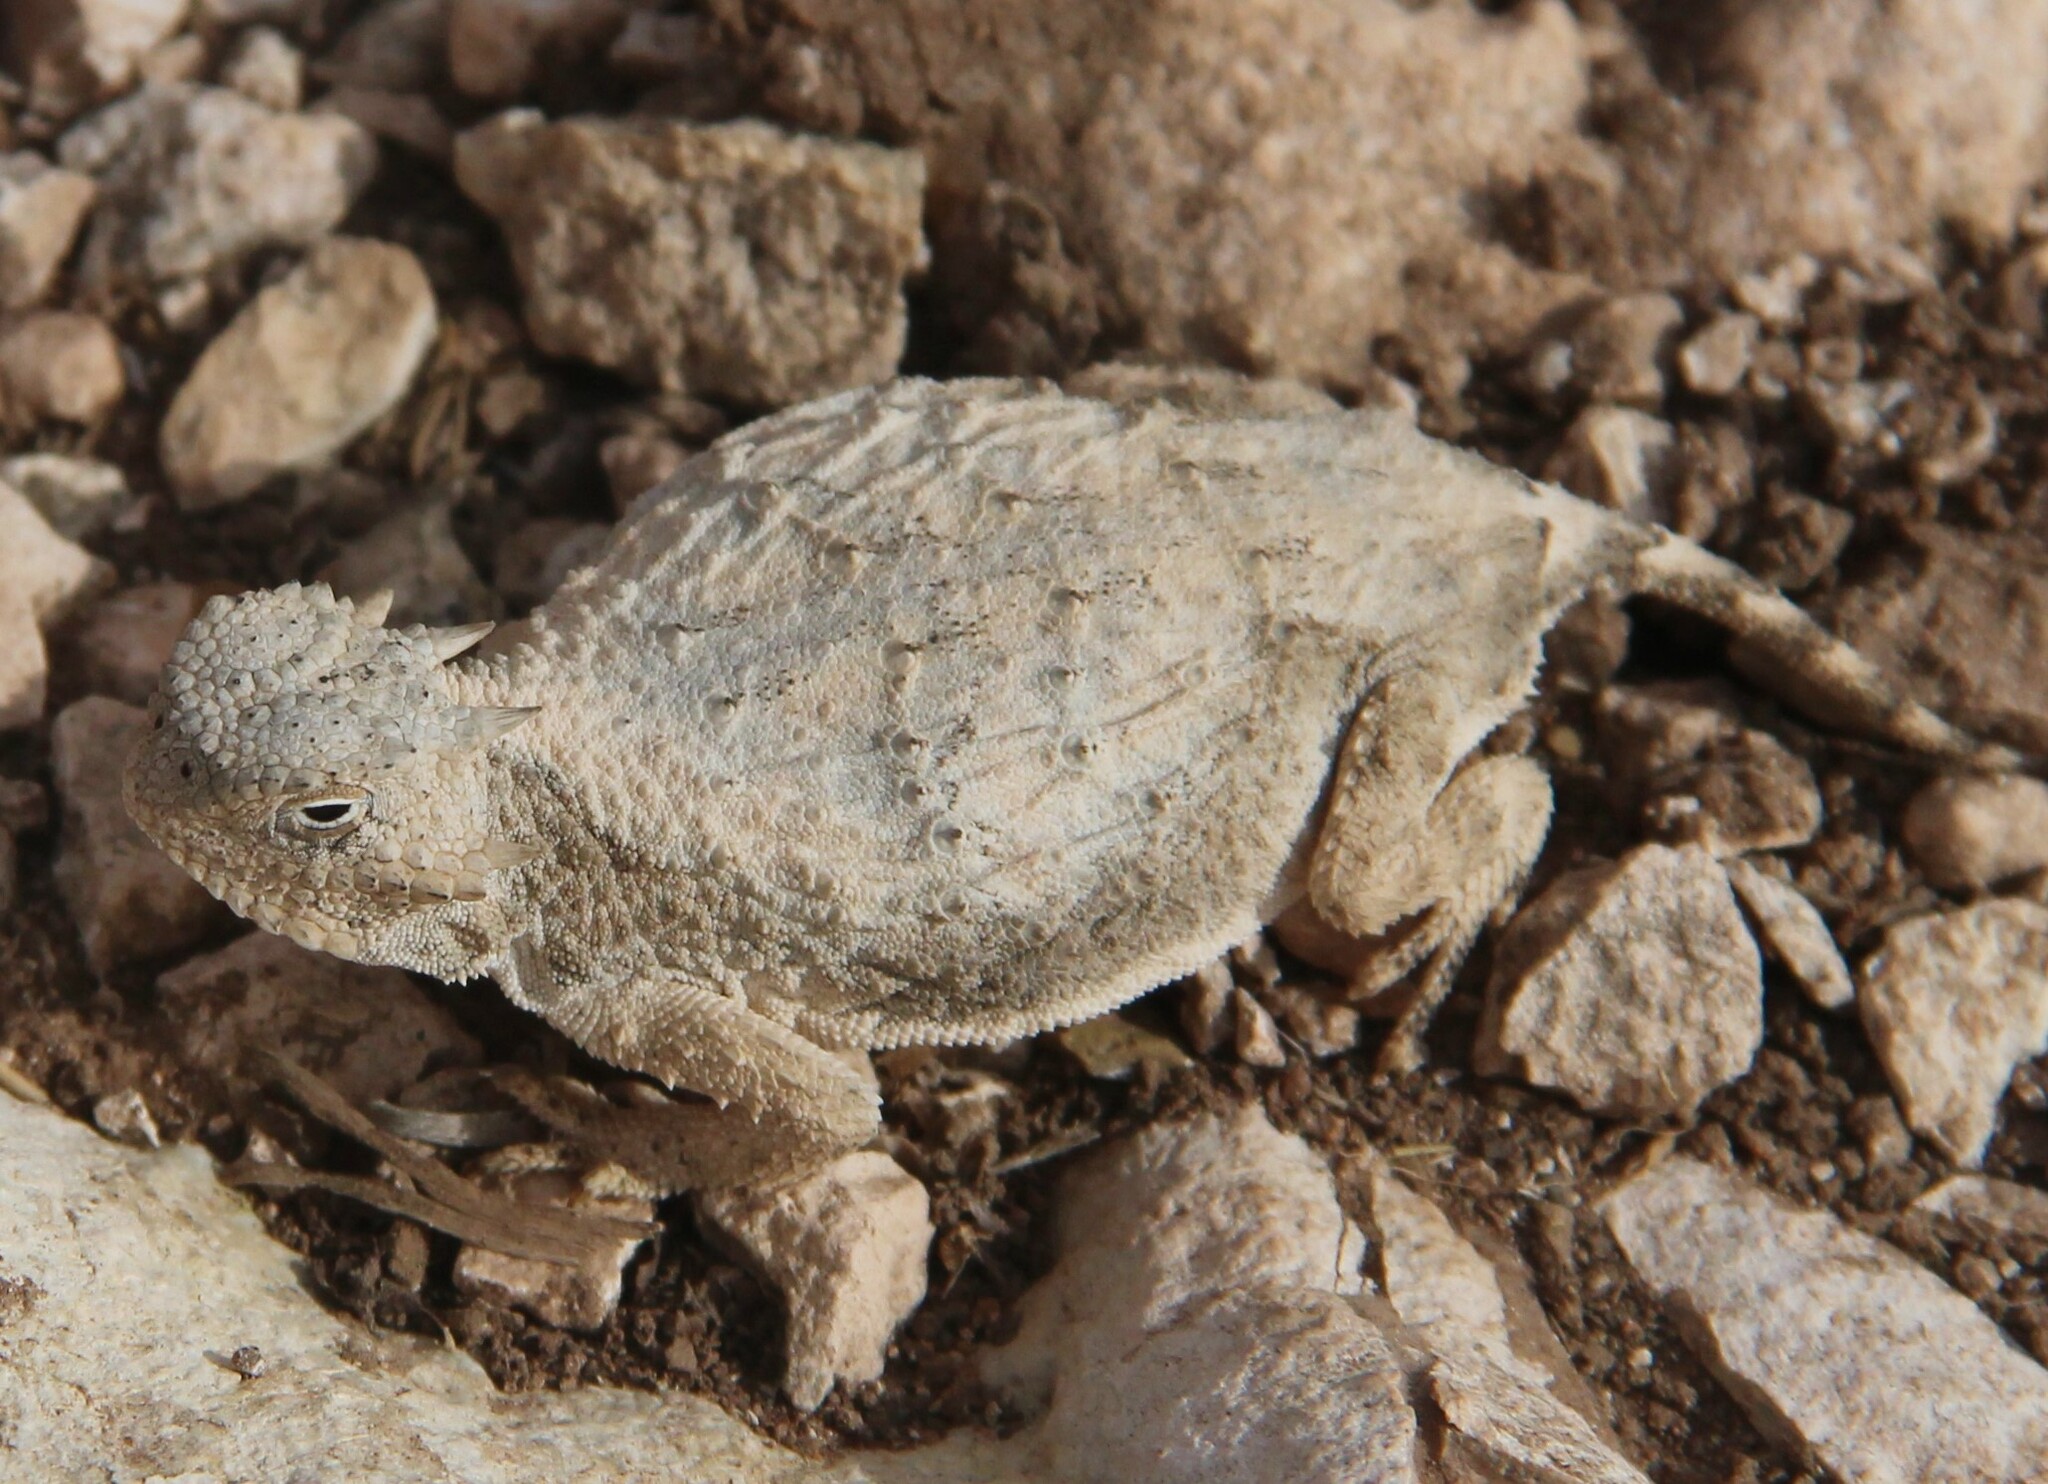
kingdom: Animalia
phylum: Chordata
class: Squamata
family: Phrynosomatidae
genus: Phrynosoma
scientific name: Phrynosoma modestum
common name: Roundtail horned lizard
